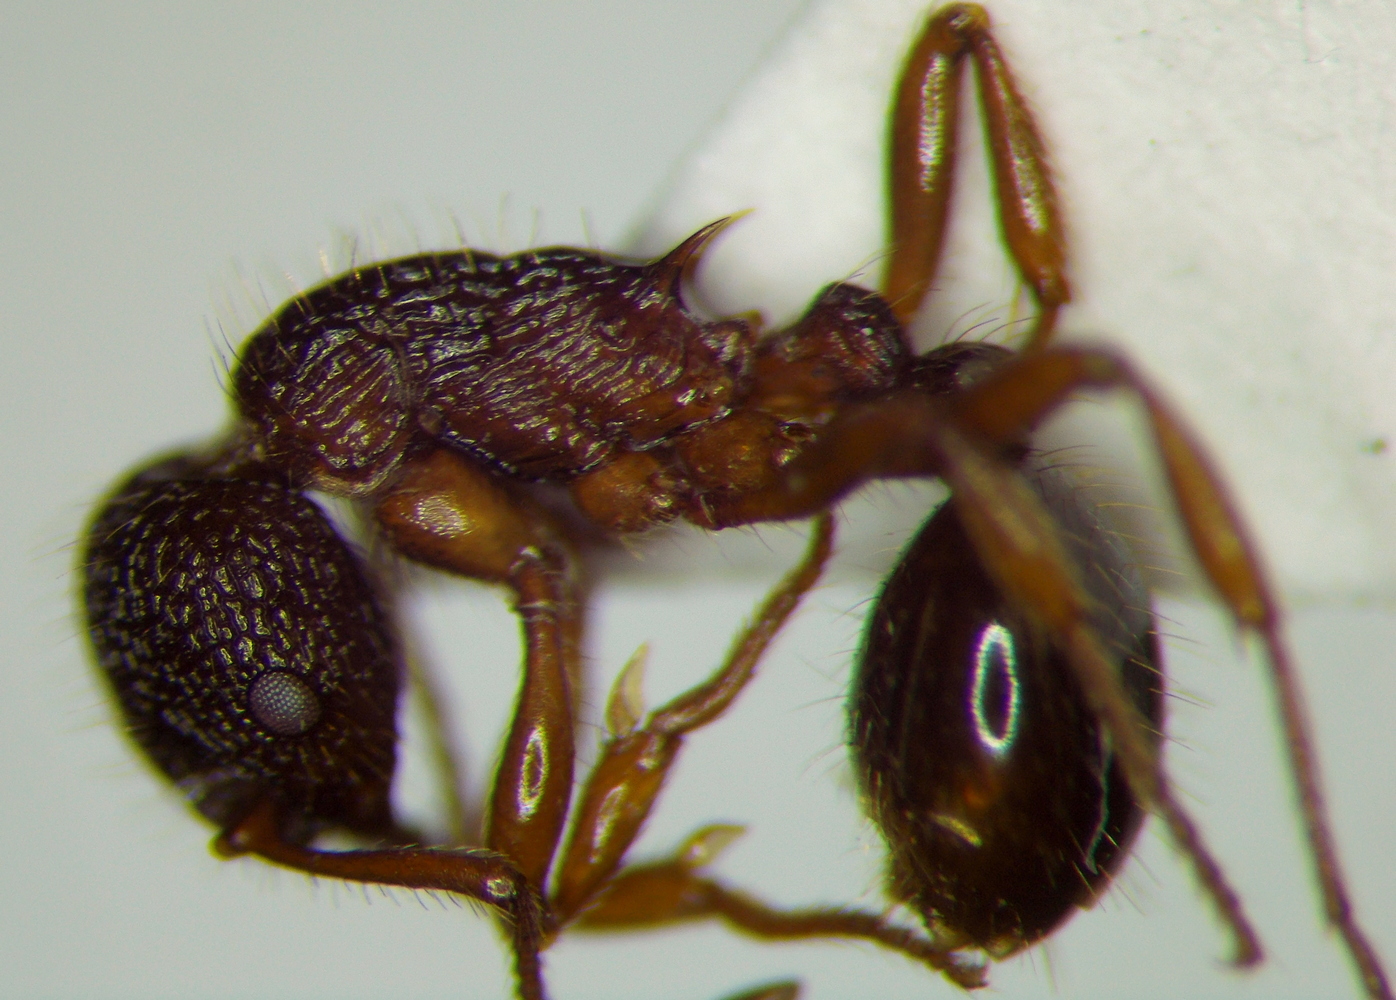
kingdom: Animalia
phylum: Arthropoda
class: Insecta
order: Hymenoptera
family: Formicidae
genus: Myrmica
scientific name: Myrmica schencki
